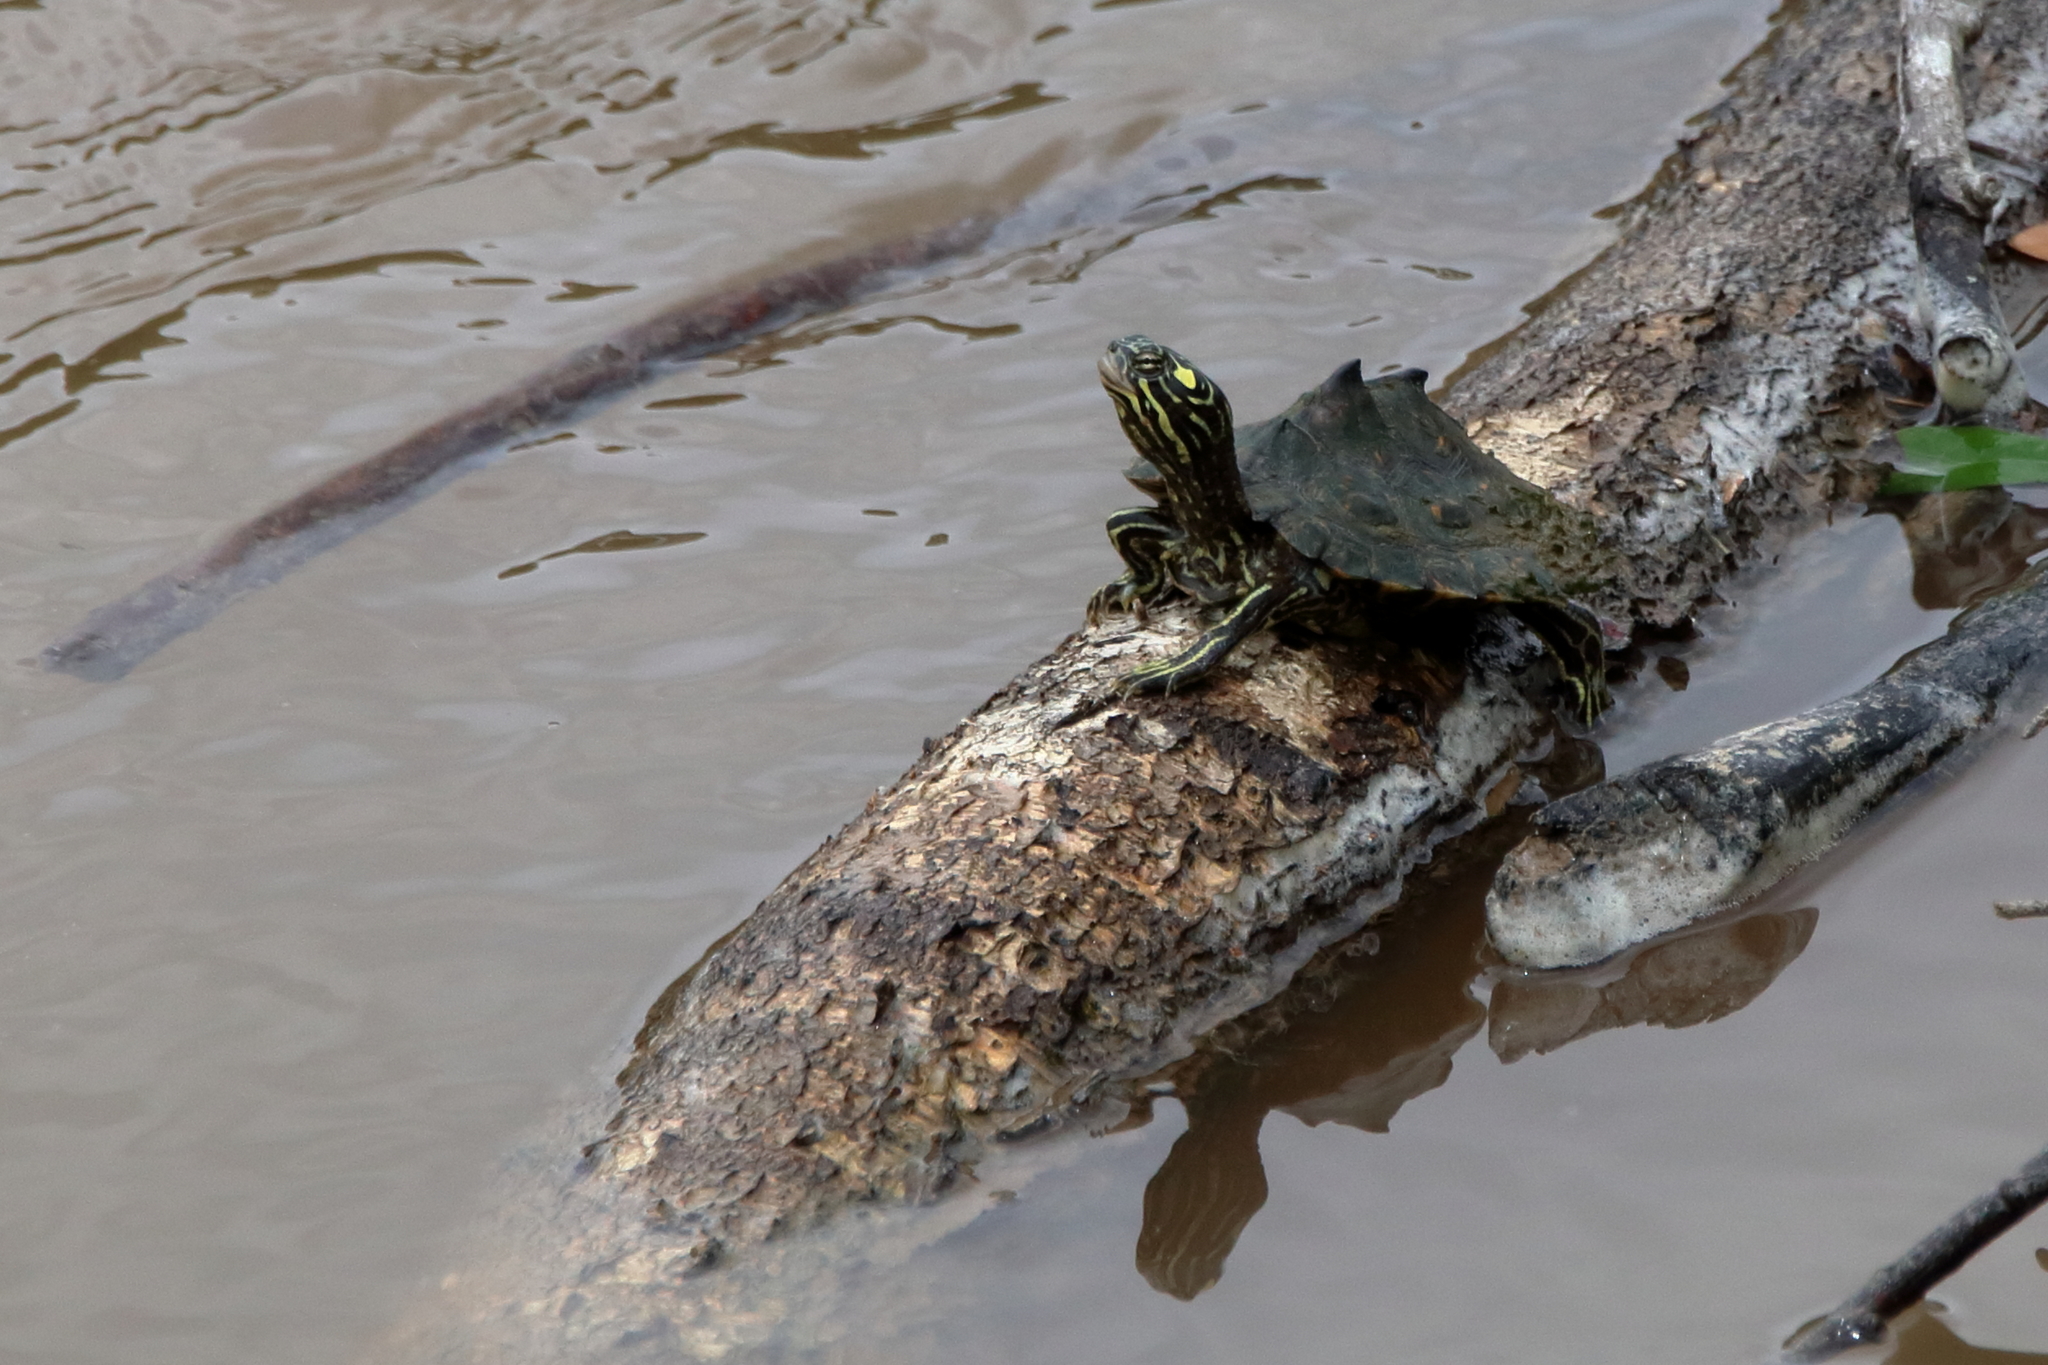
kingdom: Animalia
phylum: Chordata
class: Testudines
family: Emydidae
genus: Graptemys
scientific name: Graptemys oculifera
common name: Ringed map turtle
